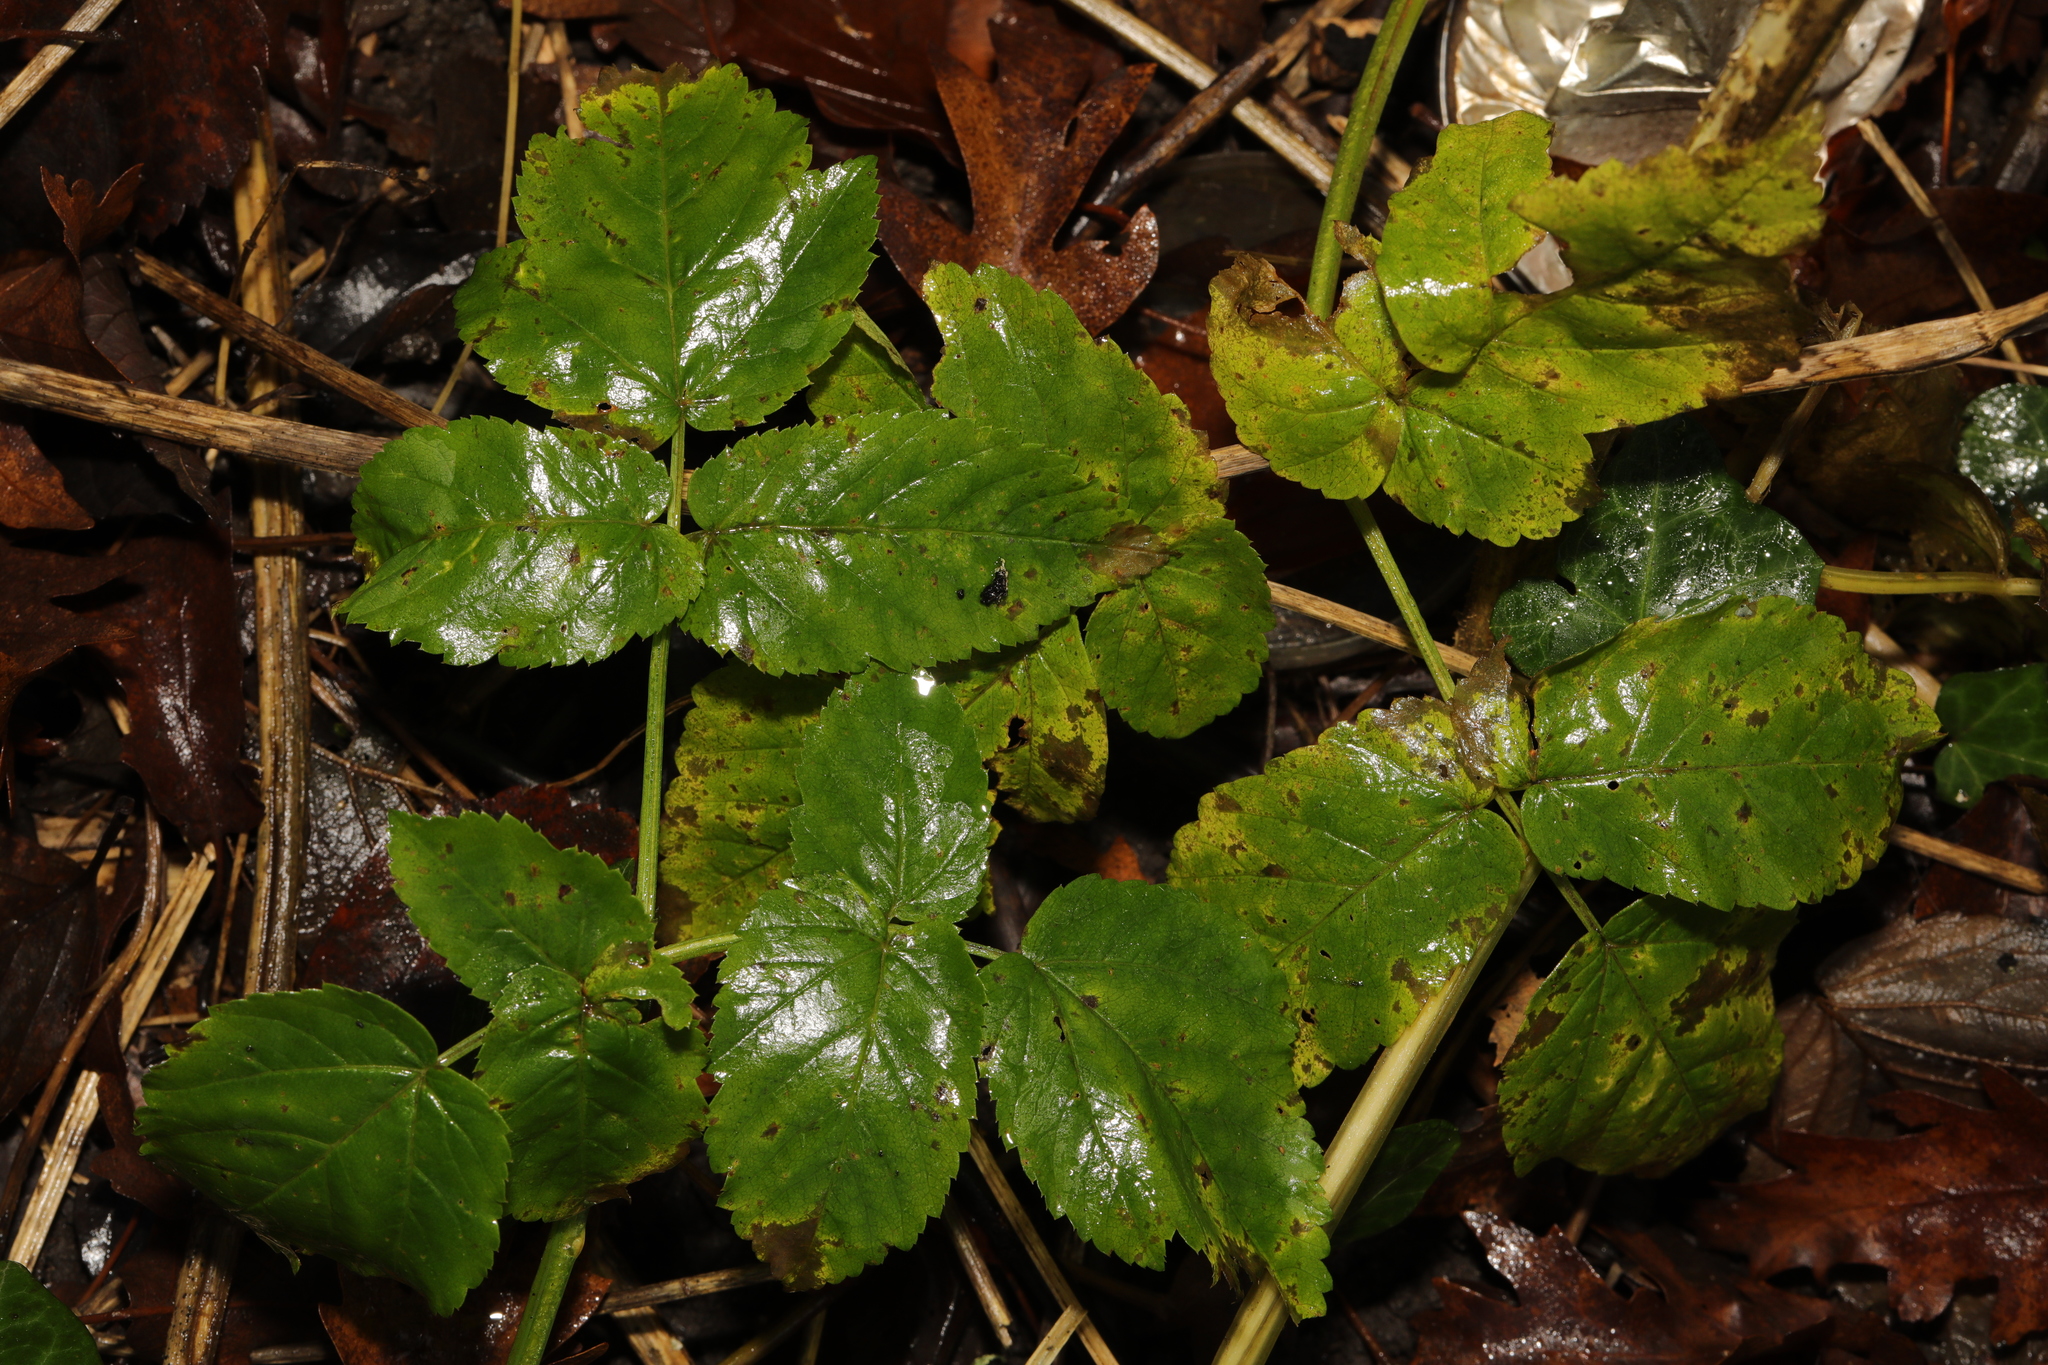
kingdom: Plantae
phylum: Tracheophyta
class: Magnoliopsida
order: Apiales
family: Apiaceae
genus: Aegopodium
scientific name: Aegopodium podagraria
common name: Ground-elder
